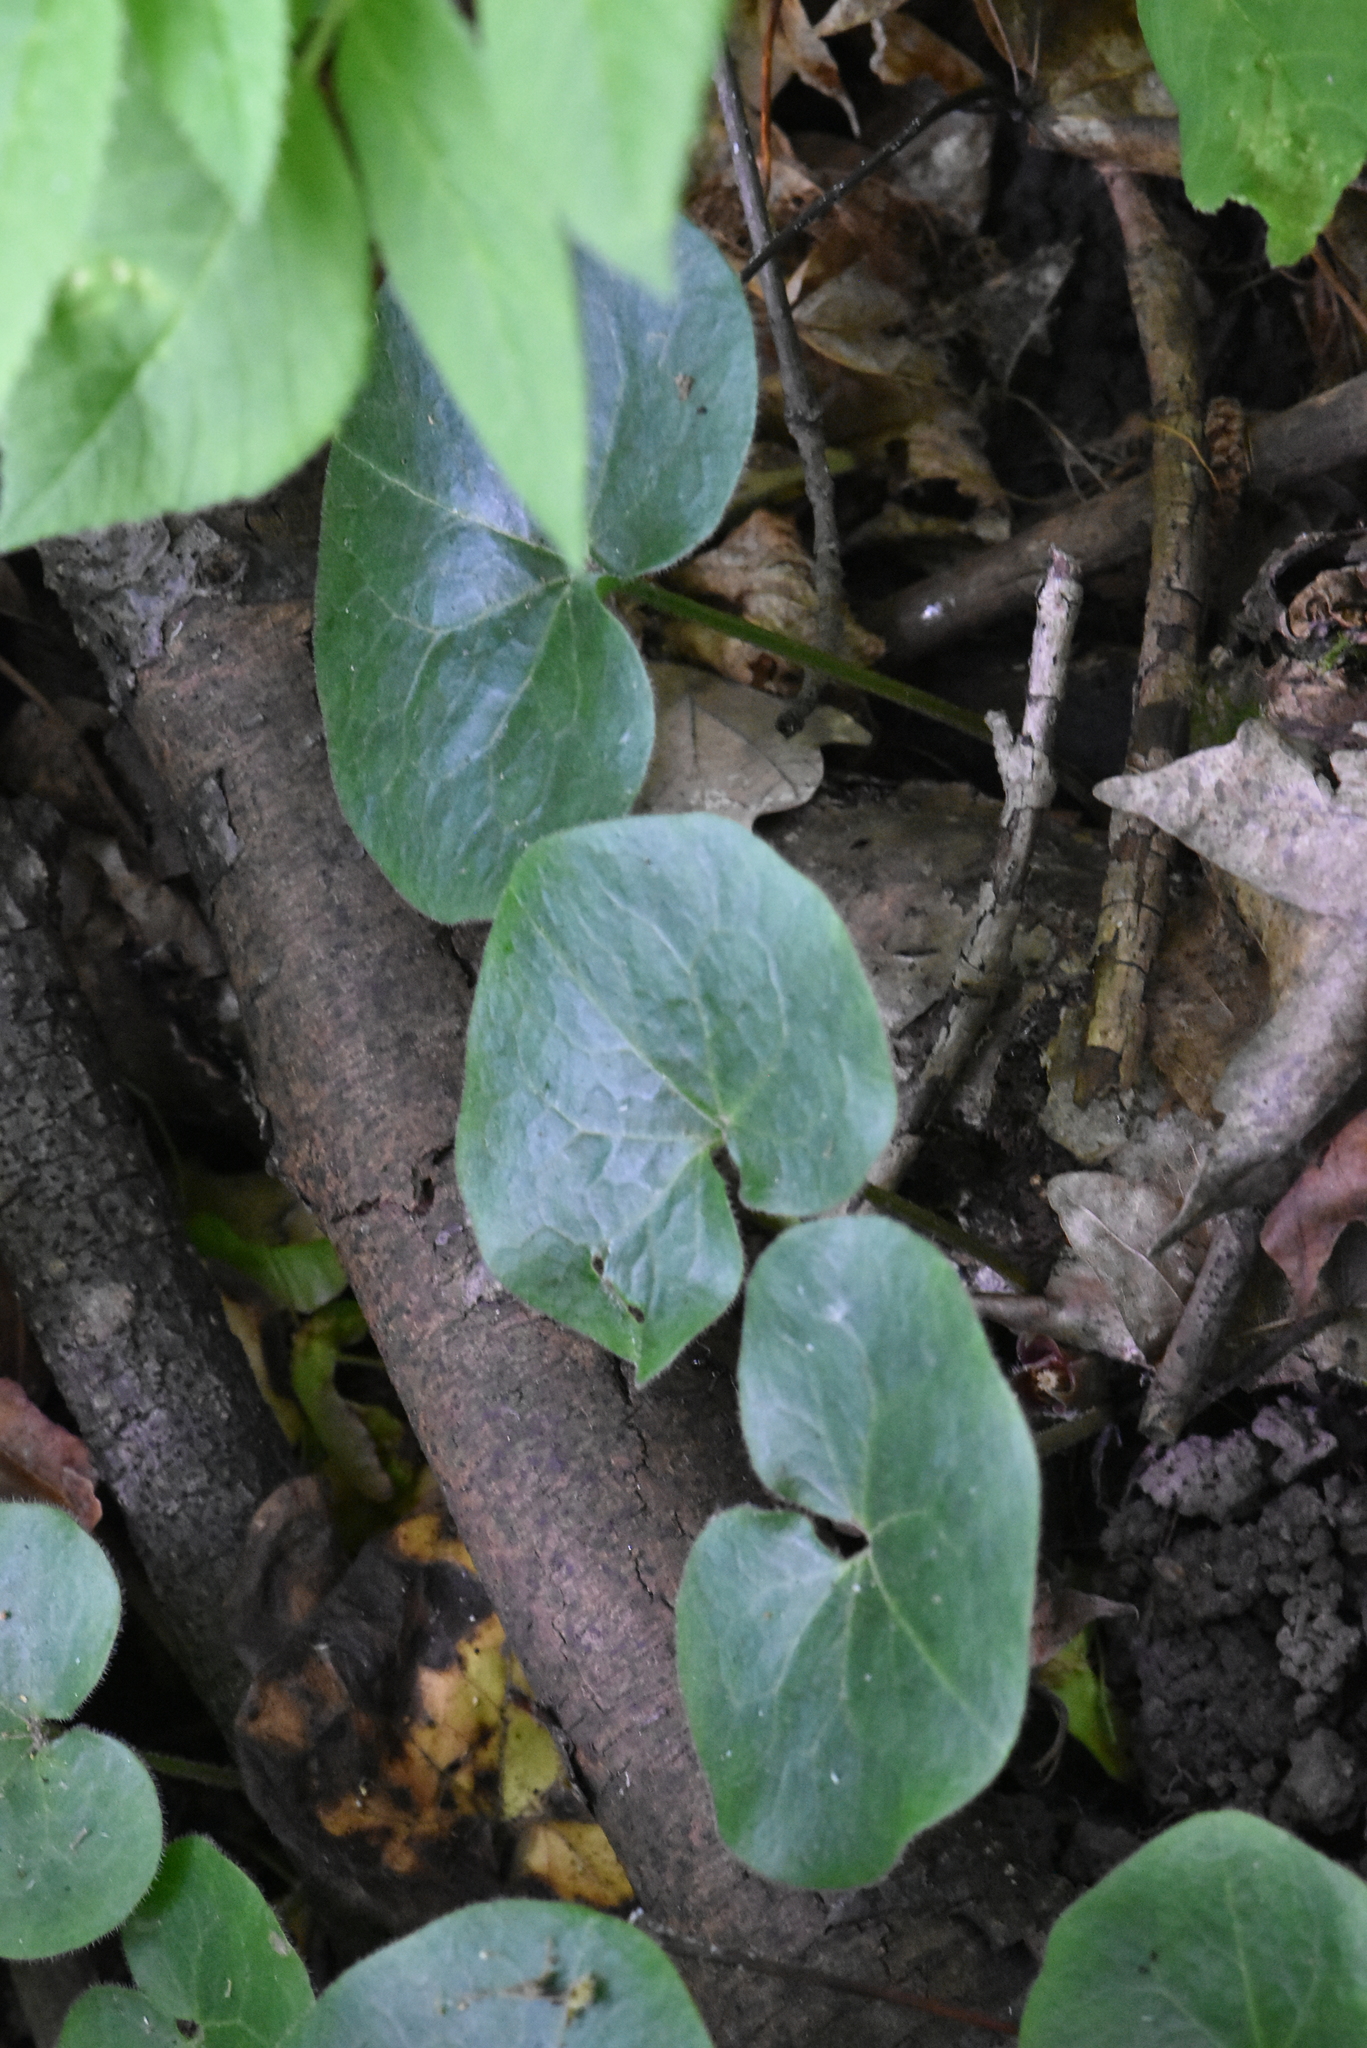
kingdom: Plantae
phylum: Tracheophyta
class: Magnoliopsida
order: Piperales
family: Aristolochiaceae
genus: Asarum
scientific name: Asarum europaeum
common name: Asarabacca
